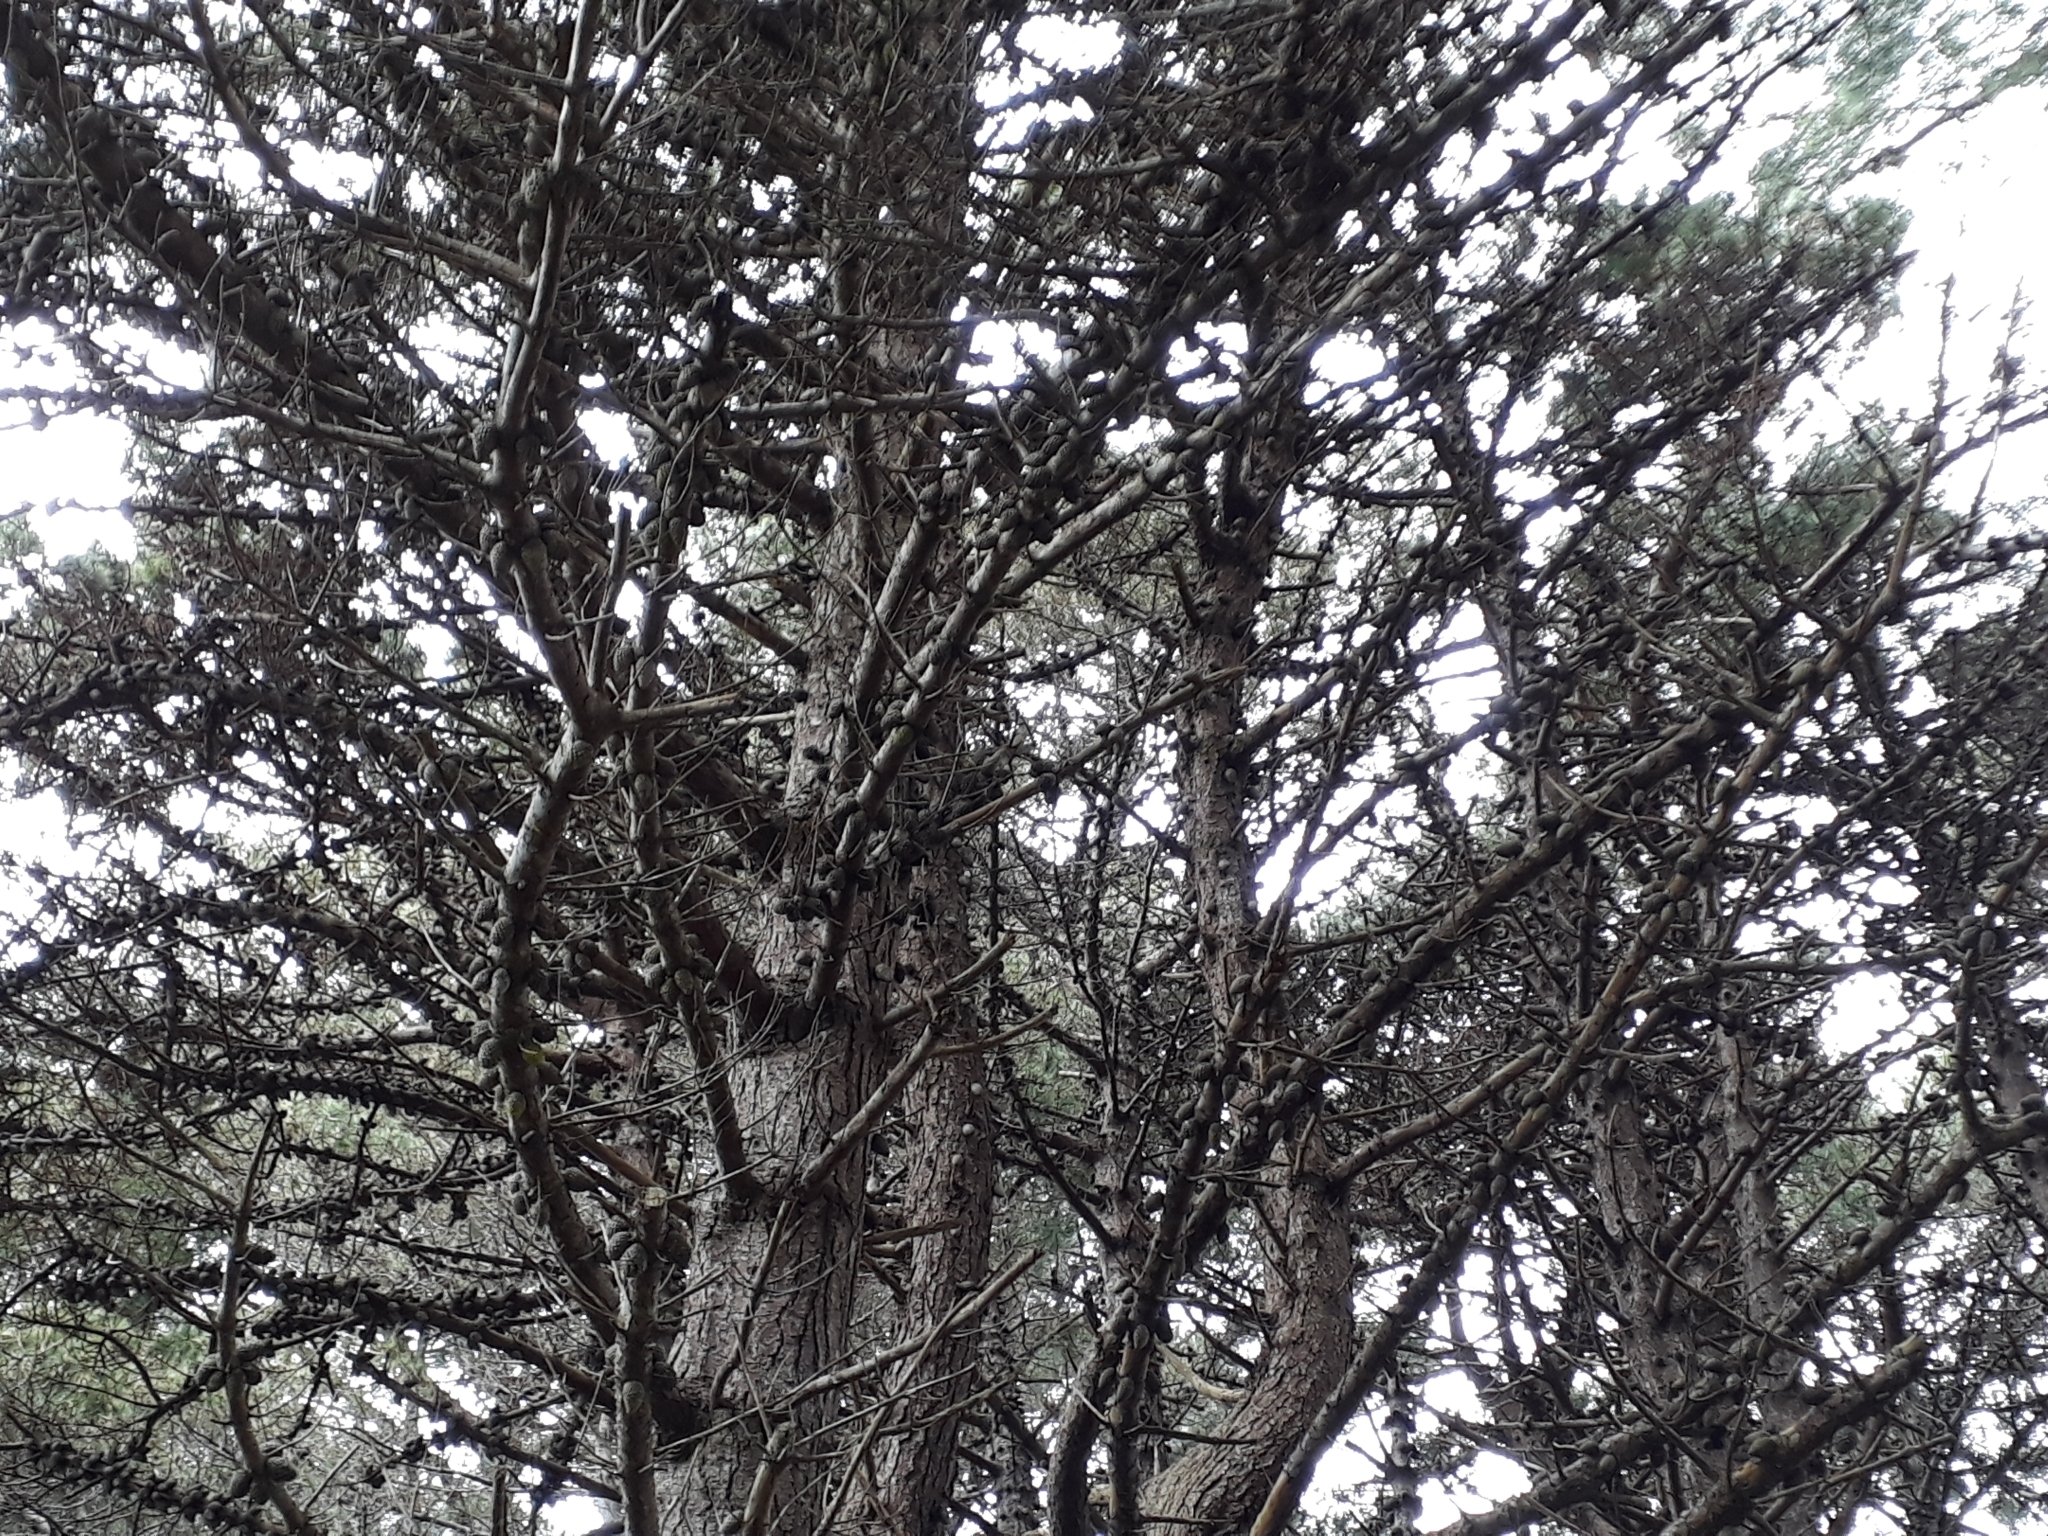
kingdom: Plantae
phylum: Tracheophyta
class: Pinopsida
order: Pinales
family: Pinaceae
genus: Pinus
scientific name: Pinus muricata
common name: Bishop pine
